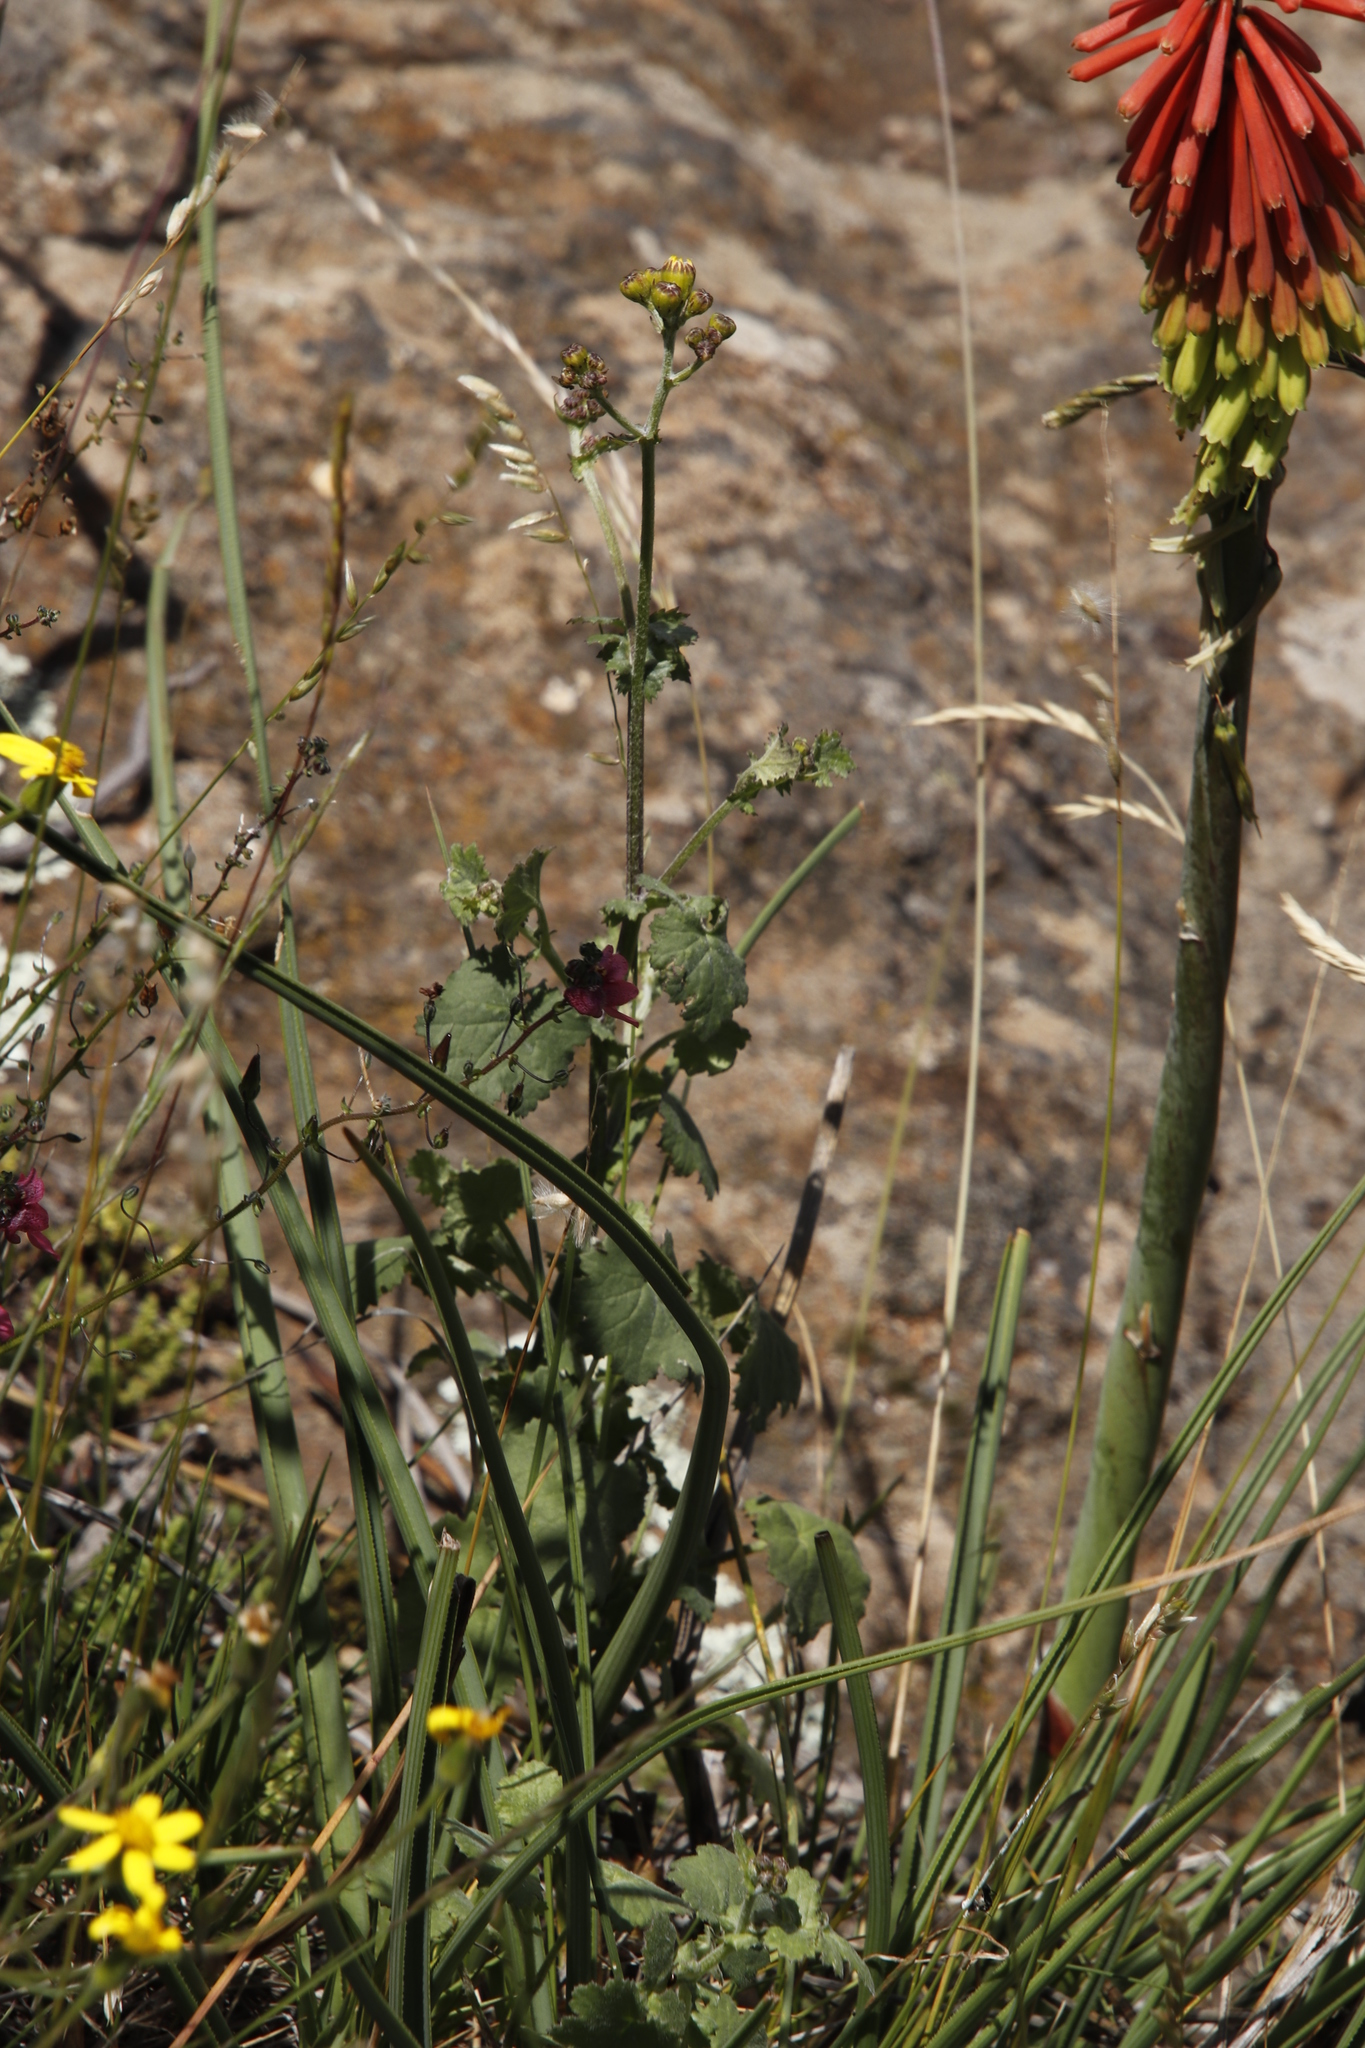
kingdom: Plantae
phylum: Tracheophyta
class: Liliopsida
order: Asparagales
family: Asphodelaceae
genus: Kniphofia
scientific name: Kniphofia stricta
